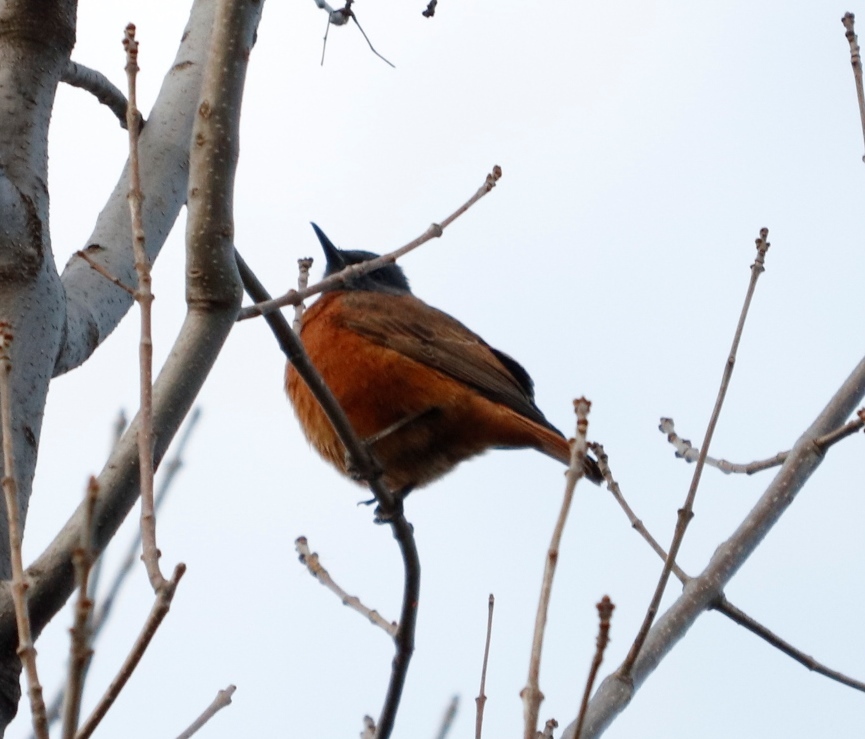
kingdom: Animalia
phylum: Chordata
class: Aves
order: Passeriformes
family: Muscicapidae
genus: Monticola
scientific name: Monticola rupestris
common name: Cape rock thrush
